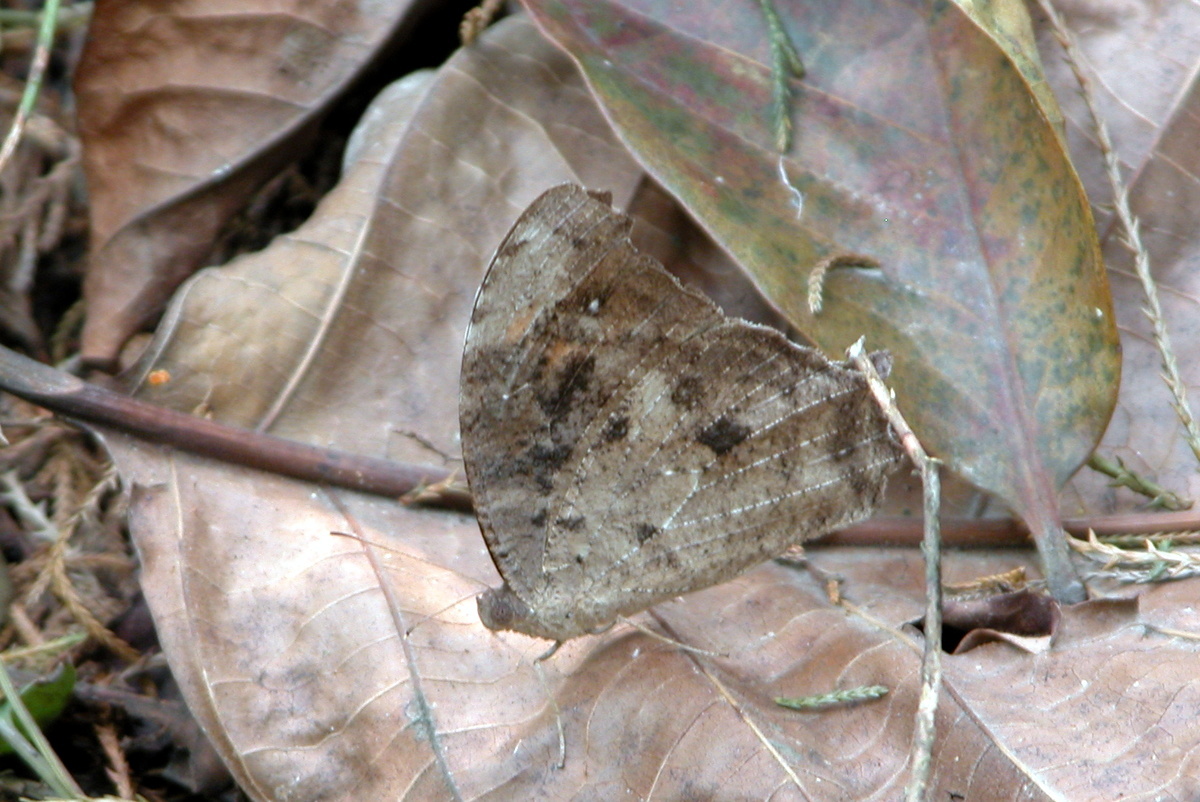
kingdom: Animalia
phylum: Arthropoda
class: Insecta
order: Lepidoptera
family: Nymphalidae
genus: Melanitis
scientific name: Melanitis leda
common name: Twilight brown
